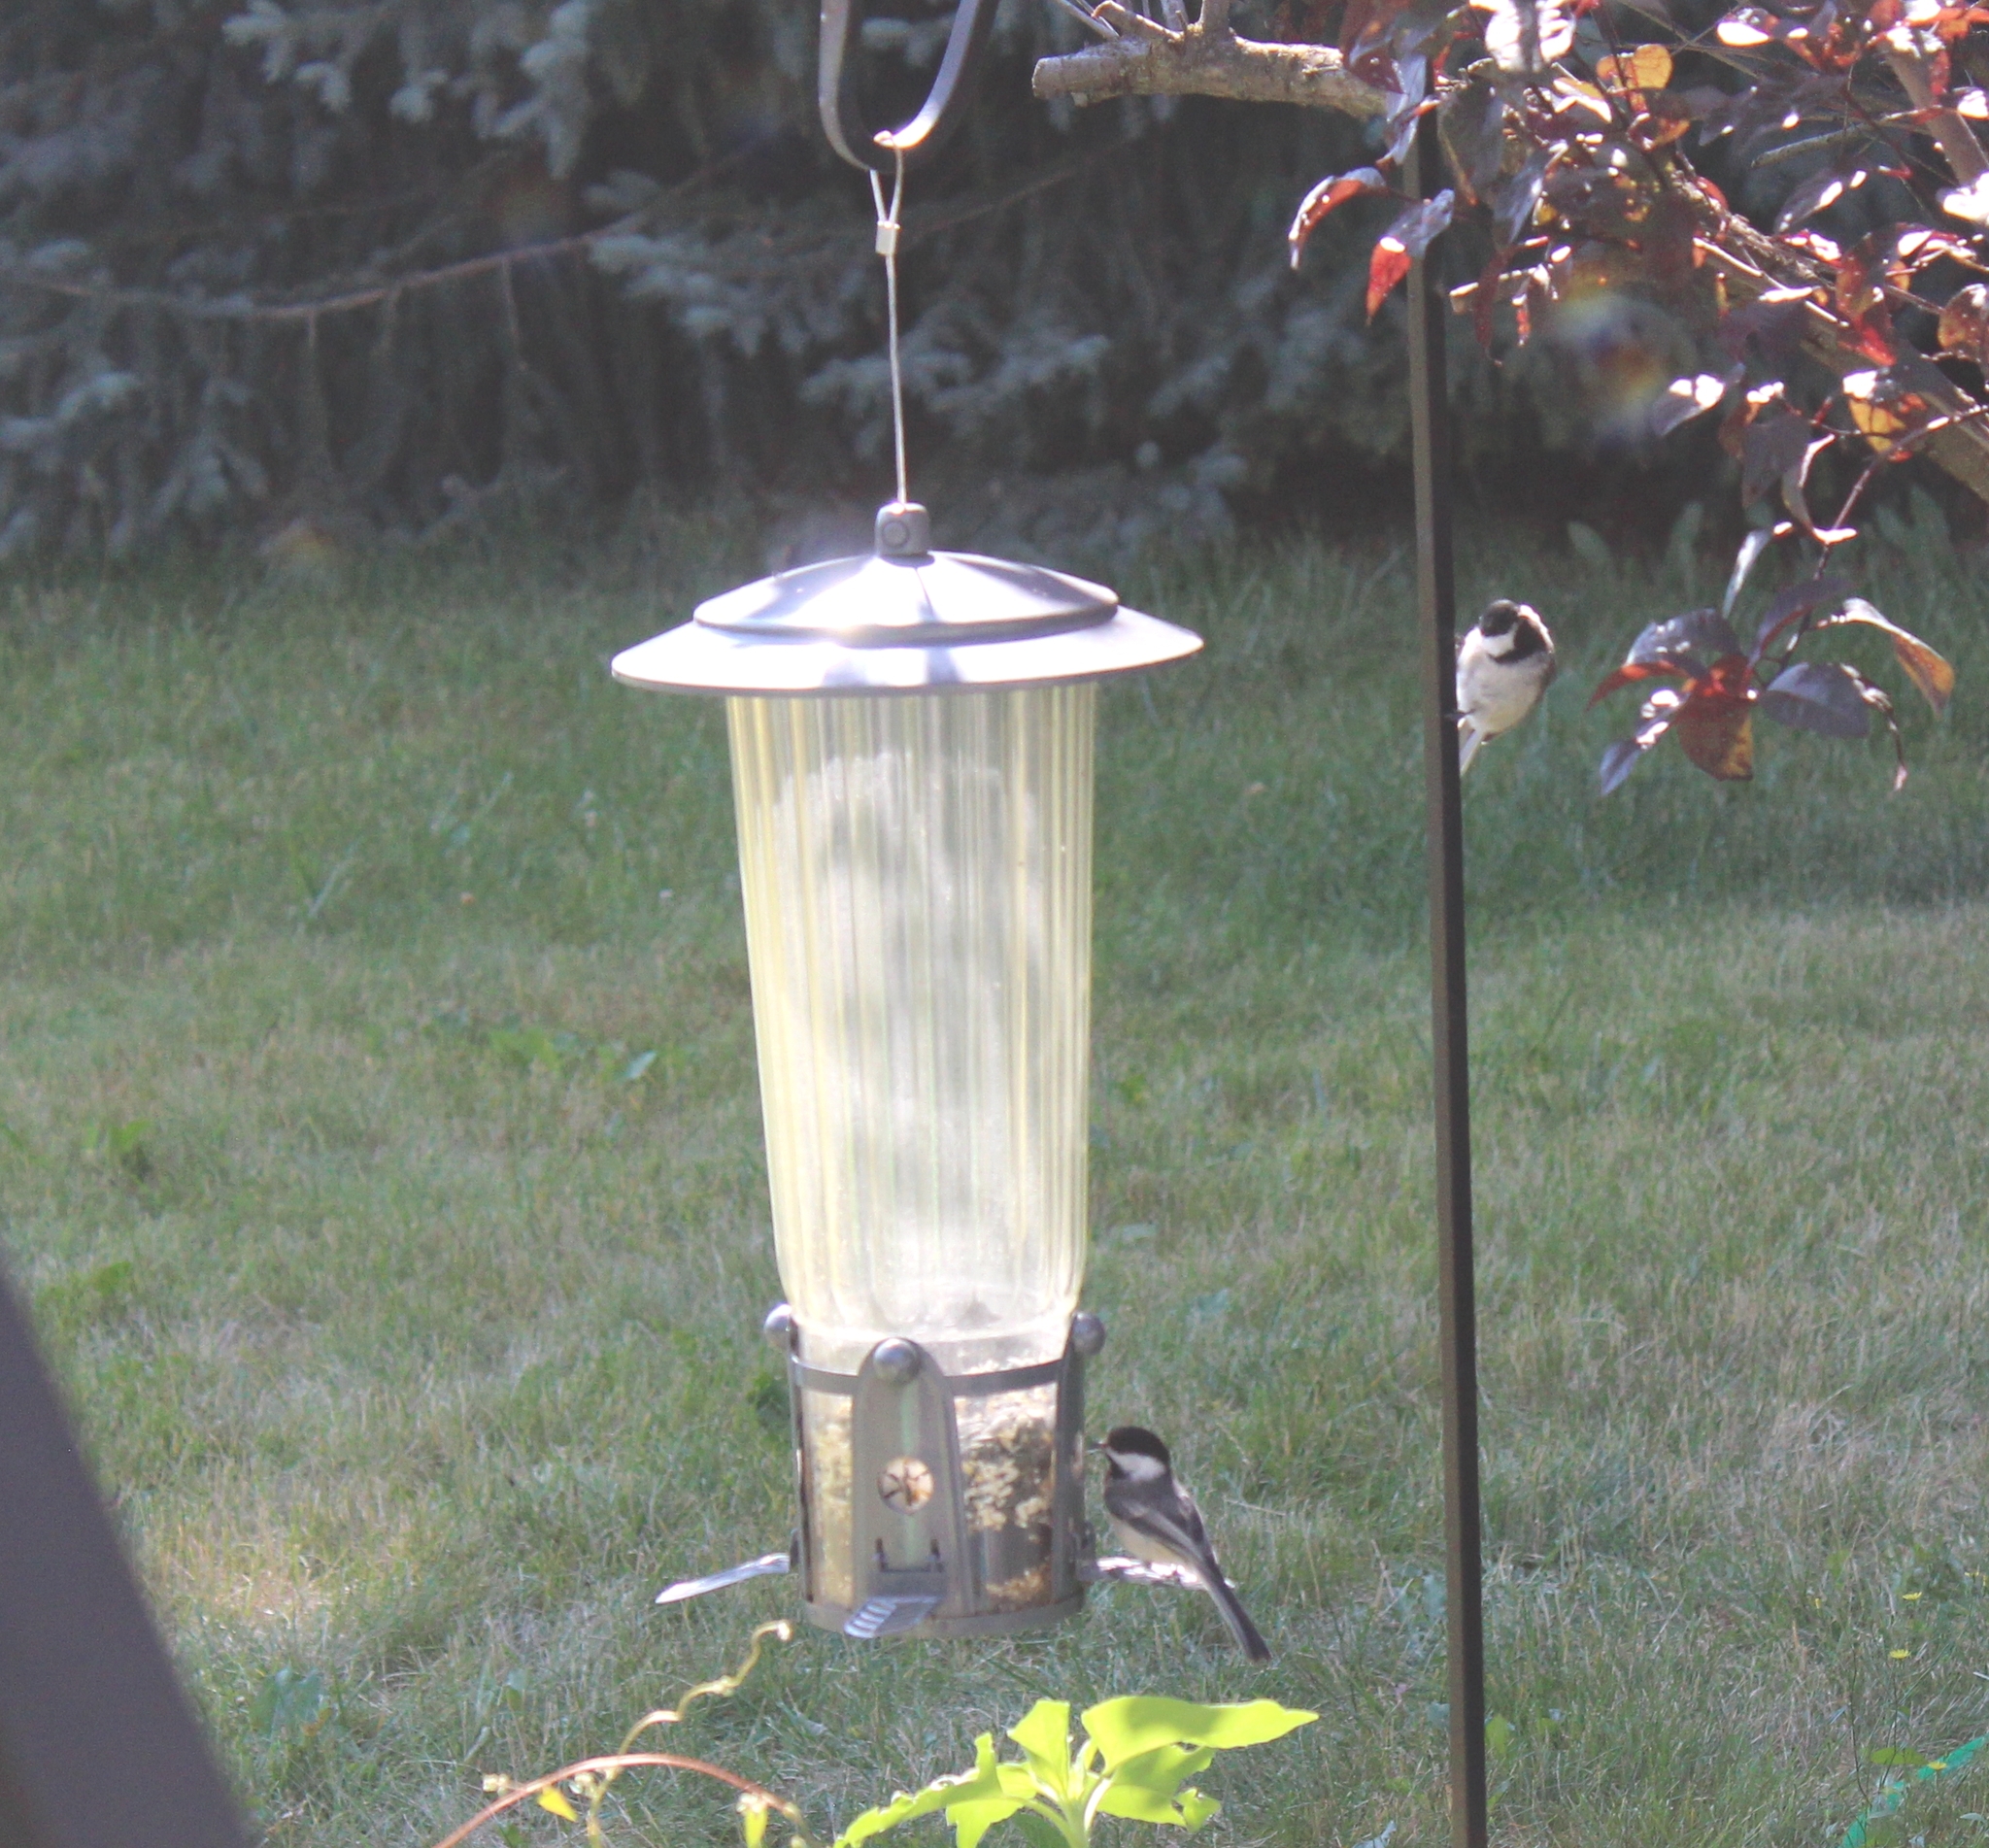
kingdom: Animalia
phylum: Chordata
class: Aves
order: Passeriformes
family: Paridae
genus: Poecile
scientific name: Poecile atricapillus
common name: Black-capped chickadee
